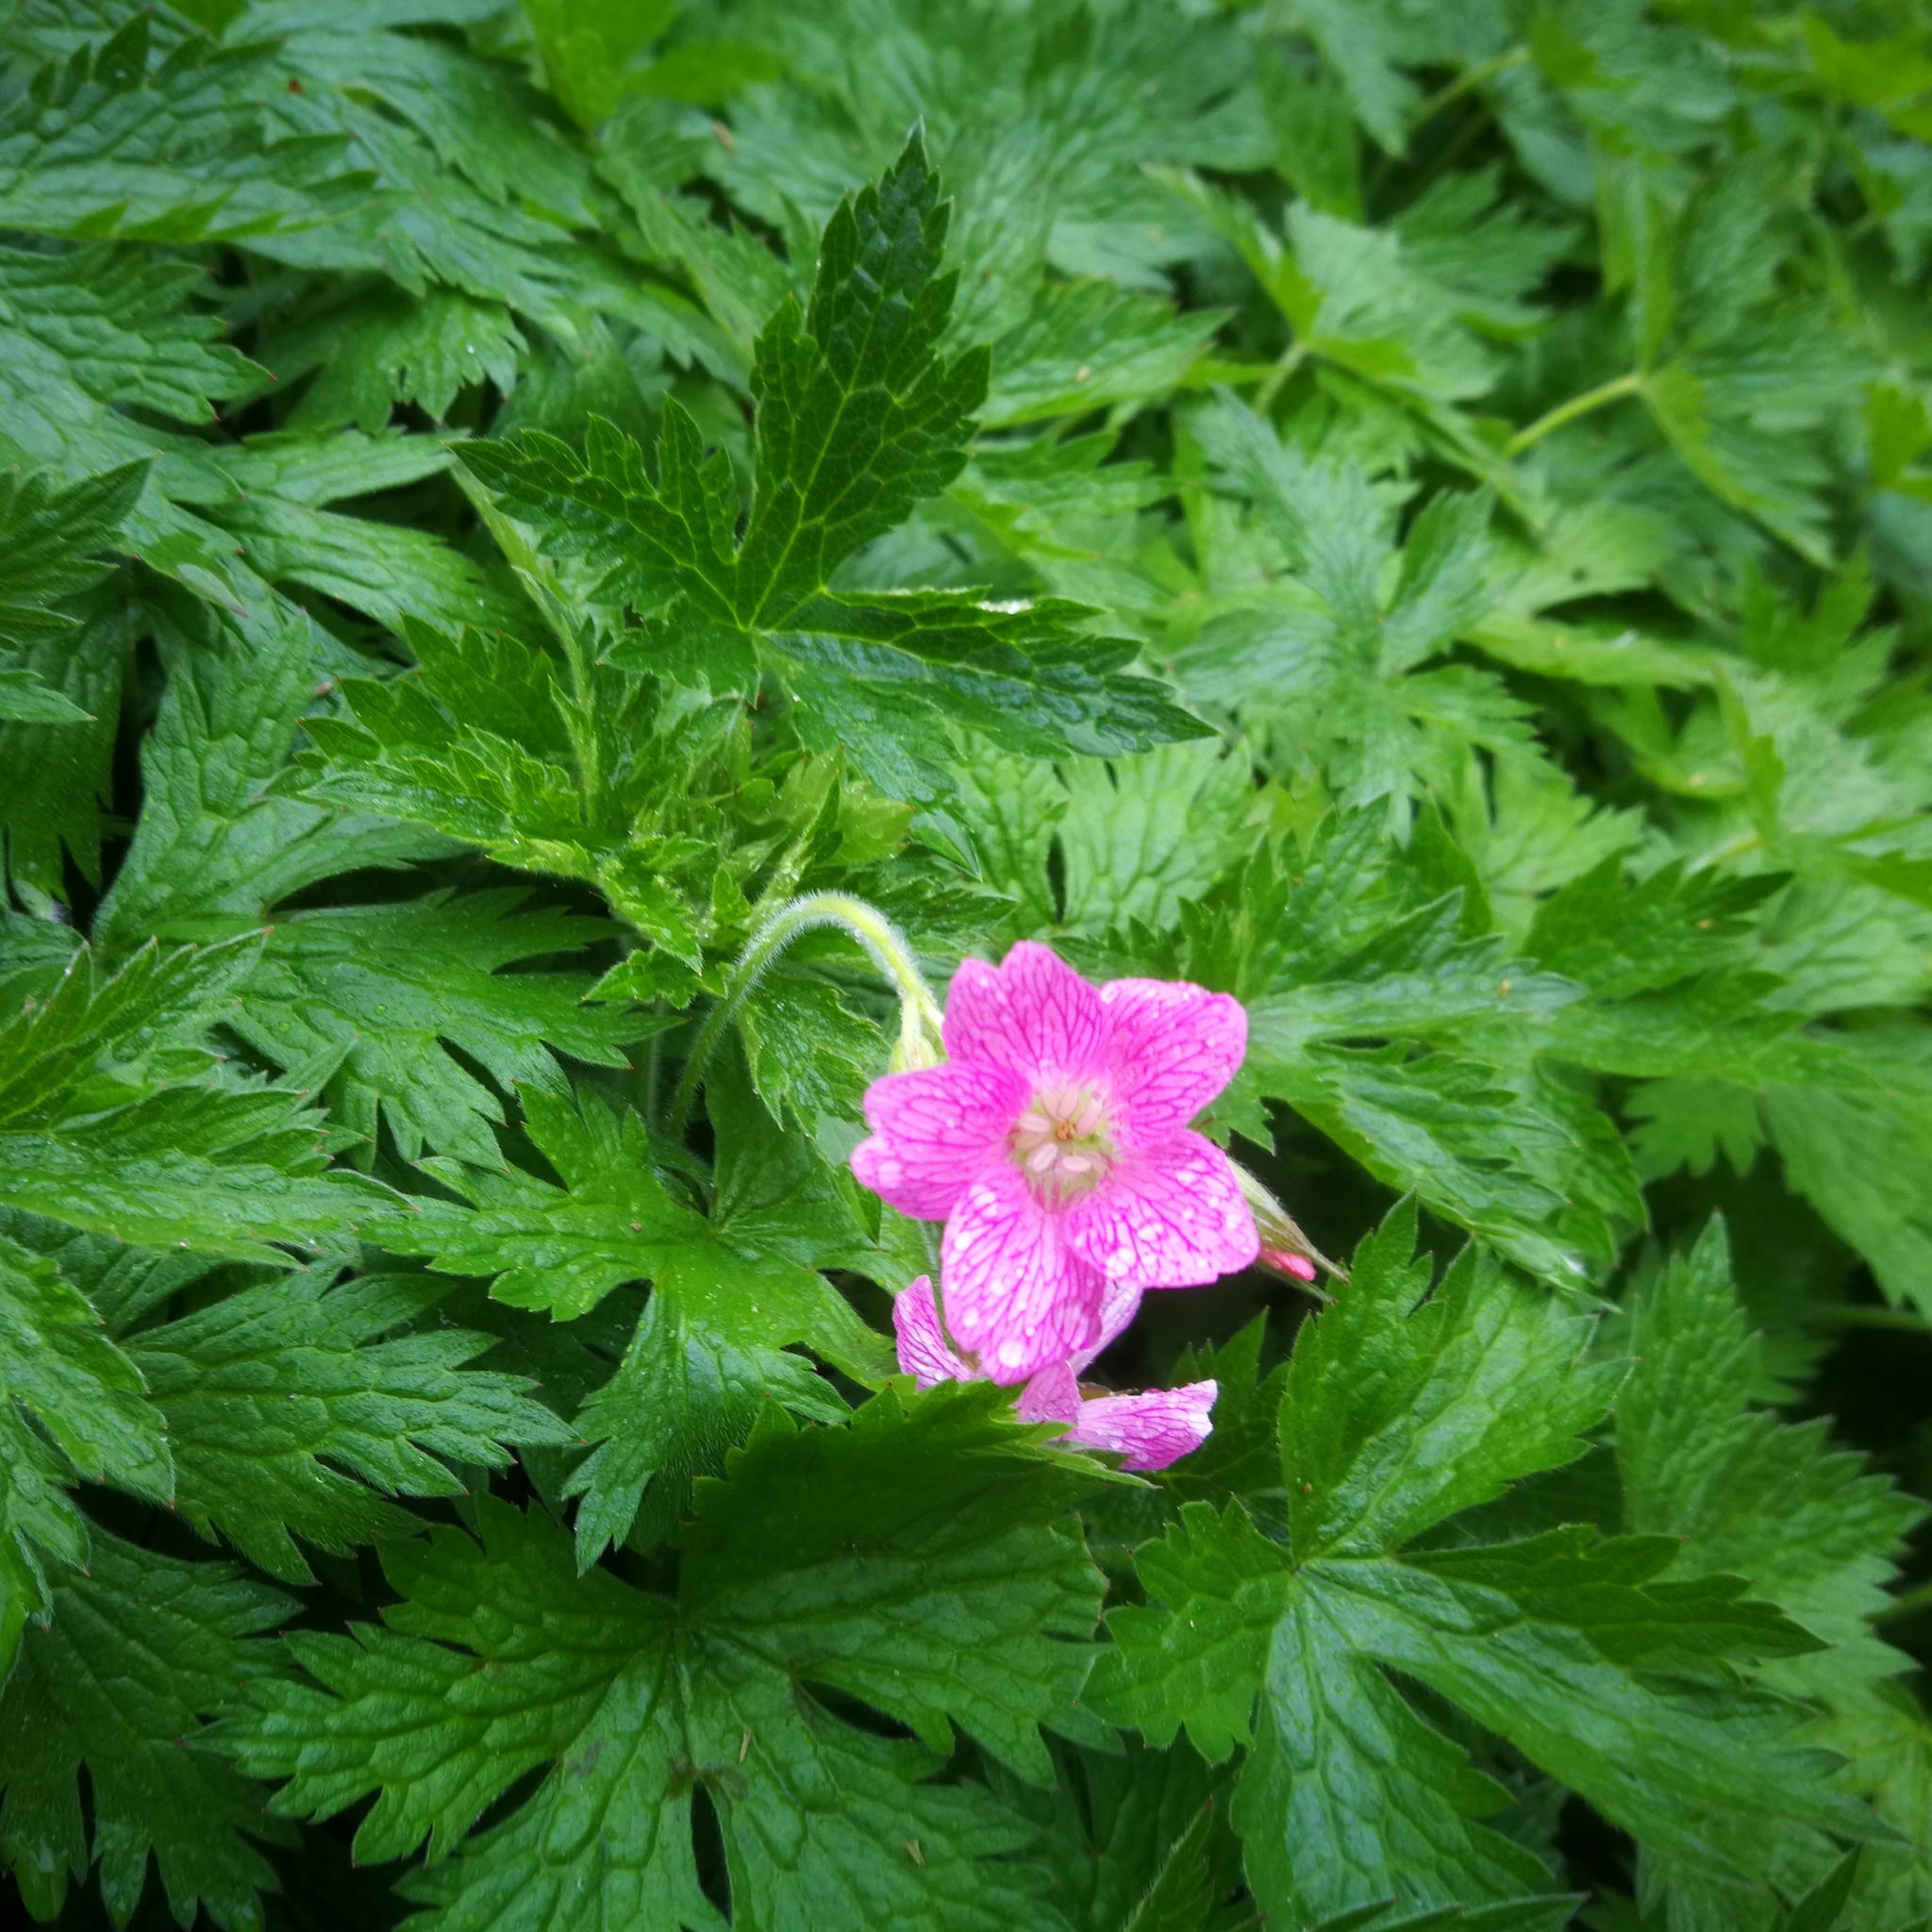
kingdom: Plantae
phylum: Tracheophyta
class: Magnoliopsida
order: Geraniales
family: Geraniaceae
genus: Geranium
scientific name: Geranium oxonianum
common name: Druce's crane's-bill
